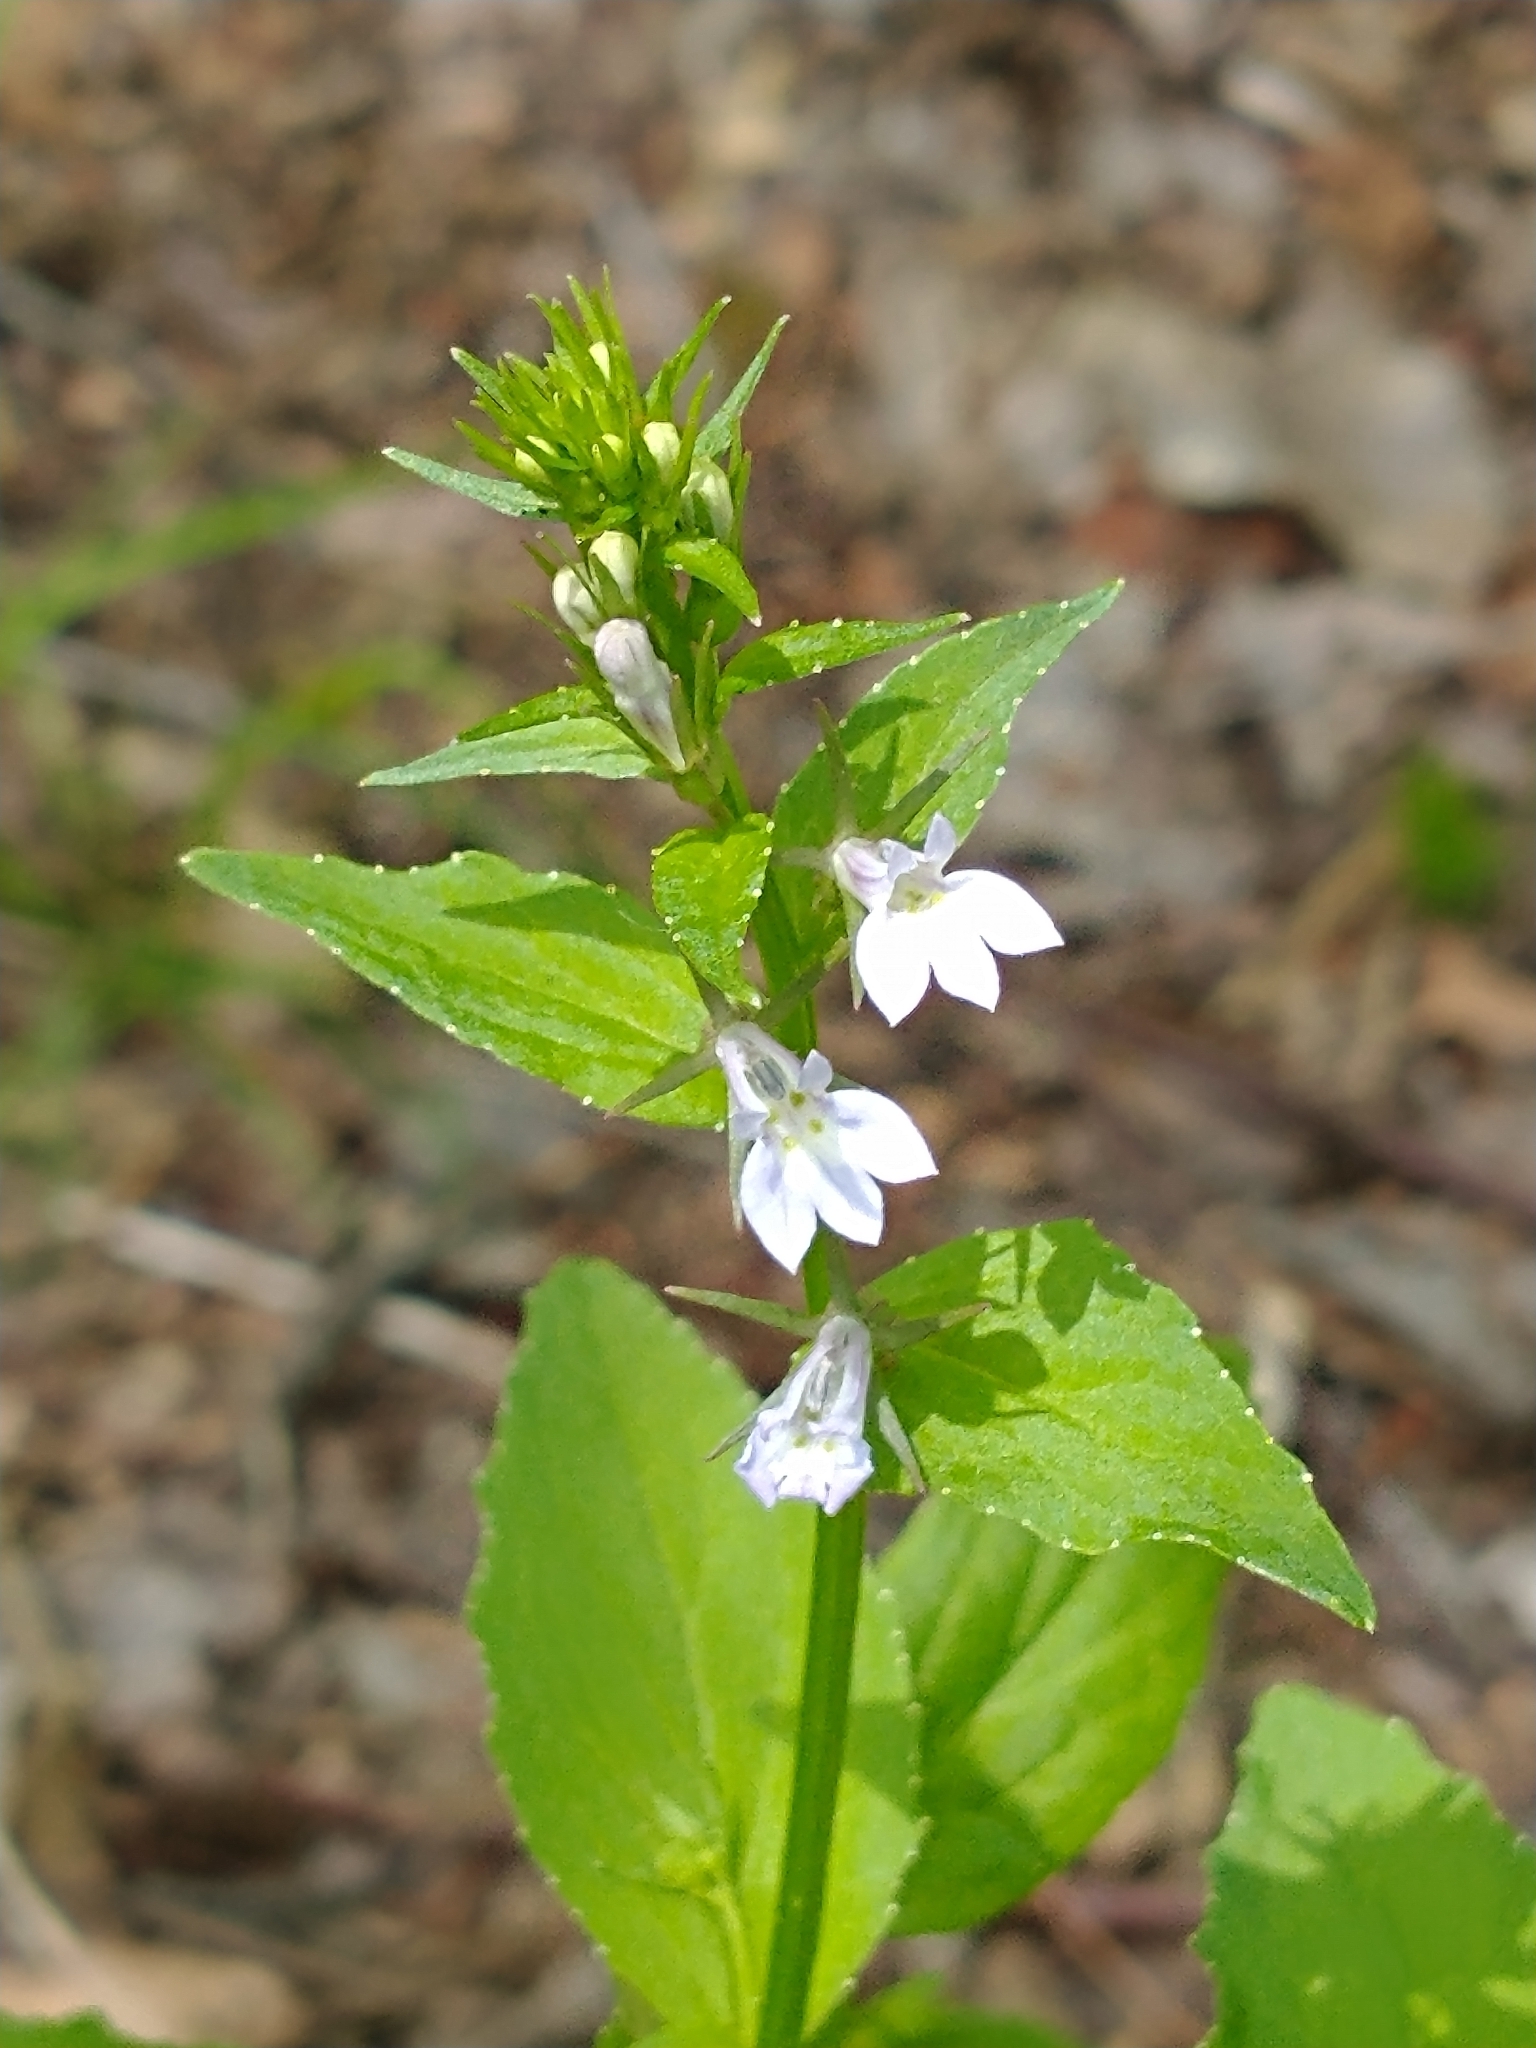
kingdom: Plantae
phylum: Tracheophyta
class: Magnoliopsida
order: Asterales
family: Campanulaceae
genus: Lobelia
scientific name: Lobelia inflata
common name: Indian tobacco
